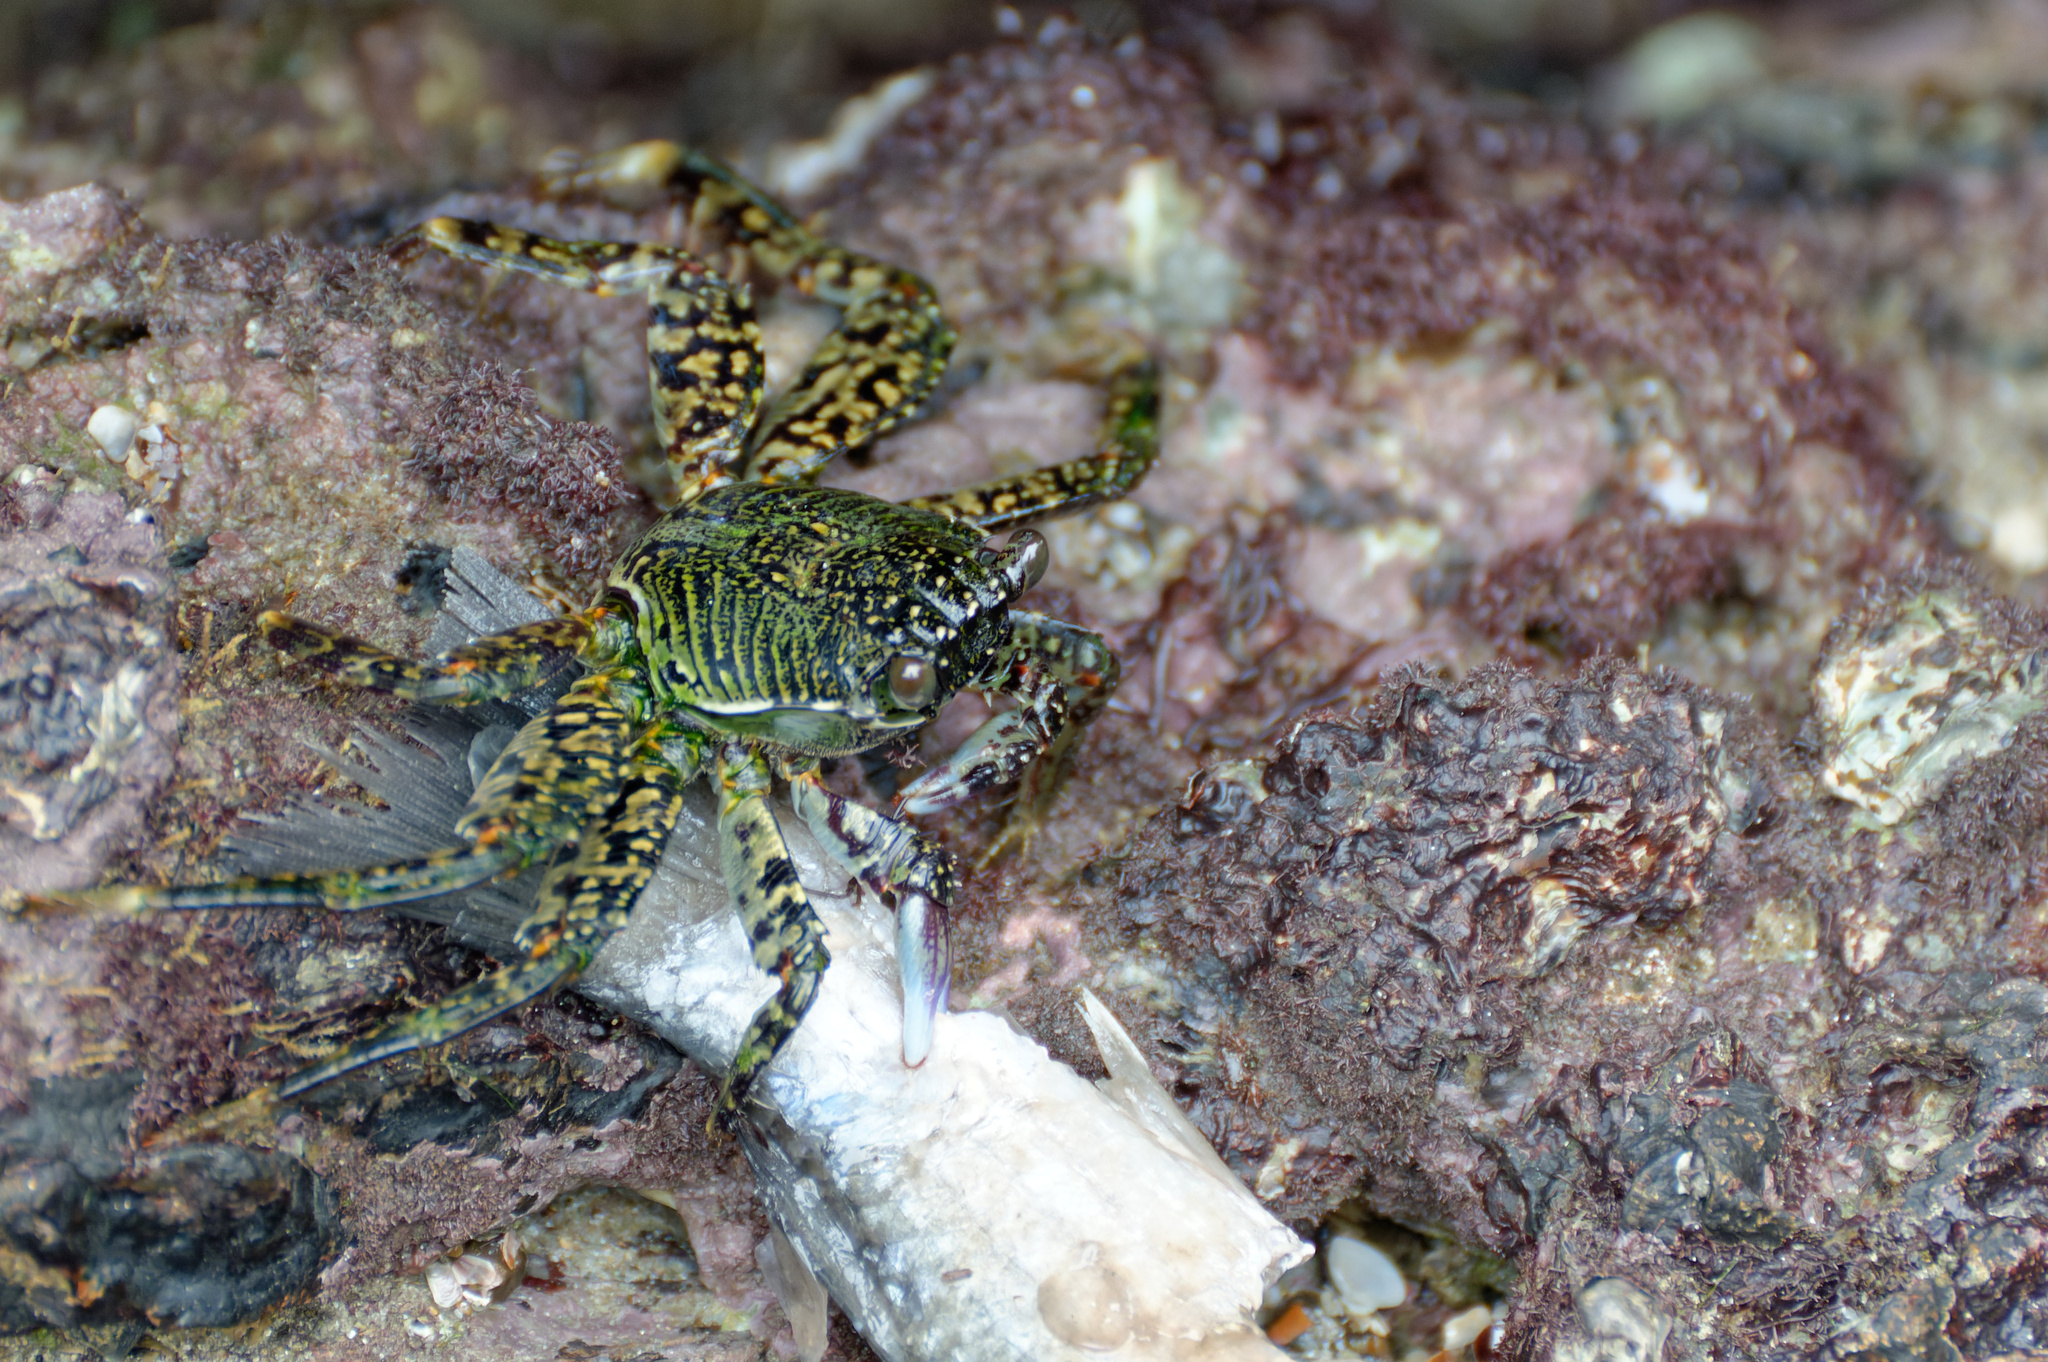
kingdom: Animalia
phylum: Arthropoda
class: Malacostraca
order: Decapoda
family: Grapsidae
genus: Grapsus
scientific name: Grapsus albolineatus
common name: Mottled lightfoot crab
